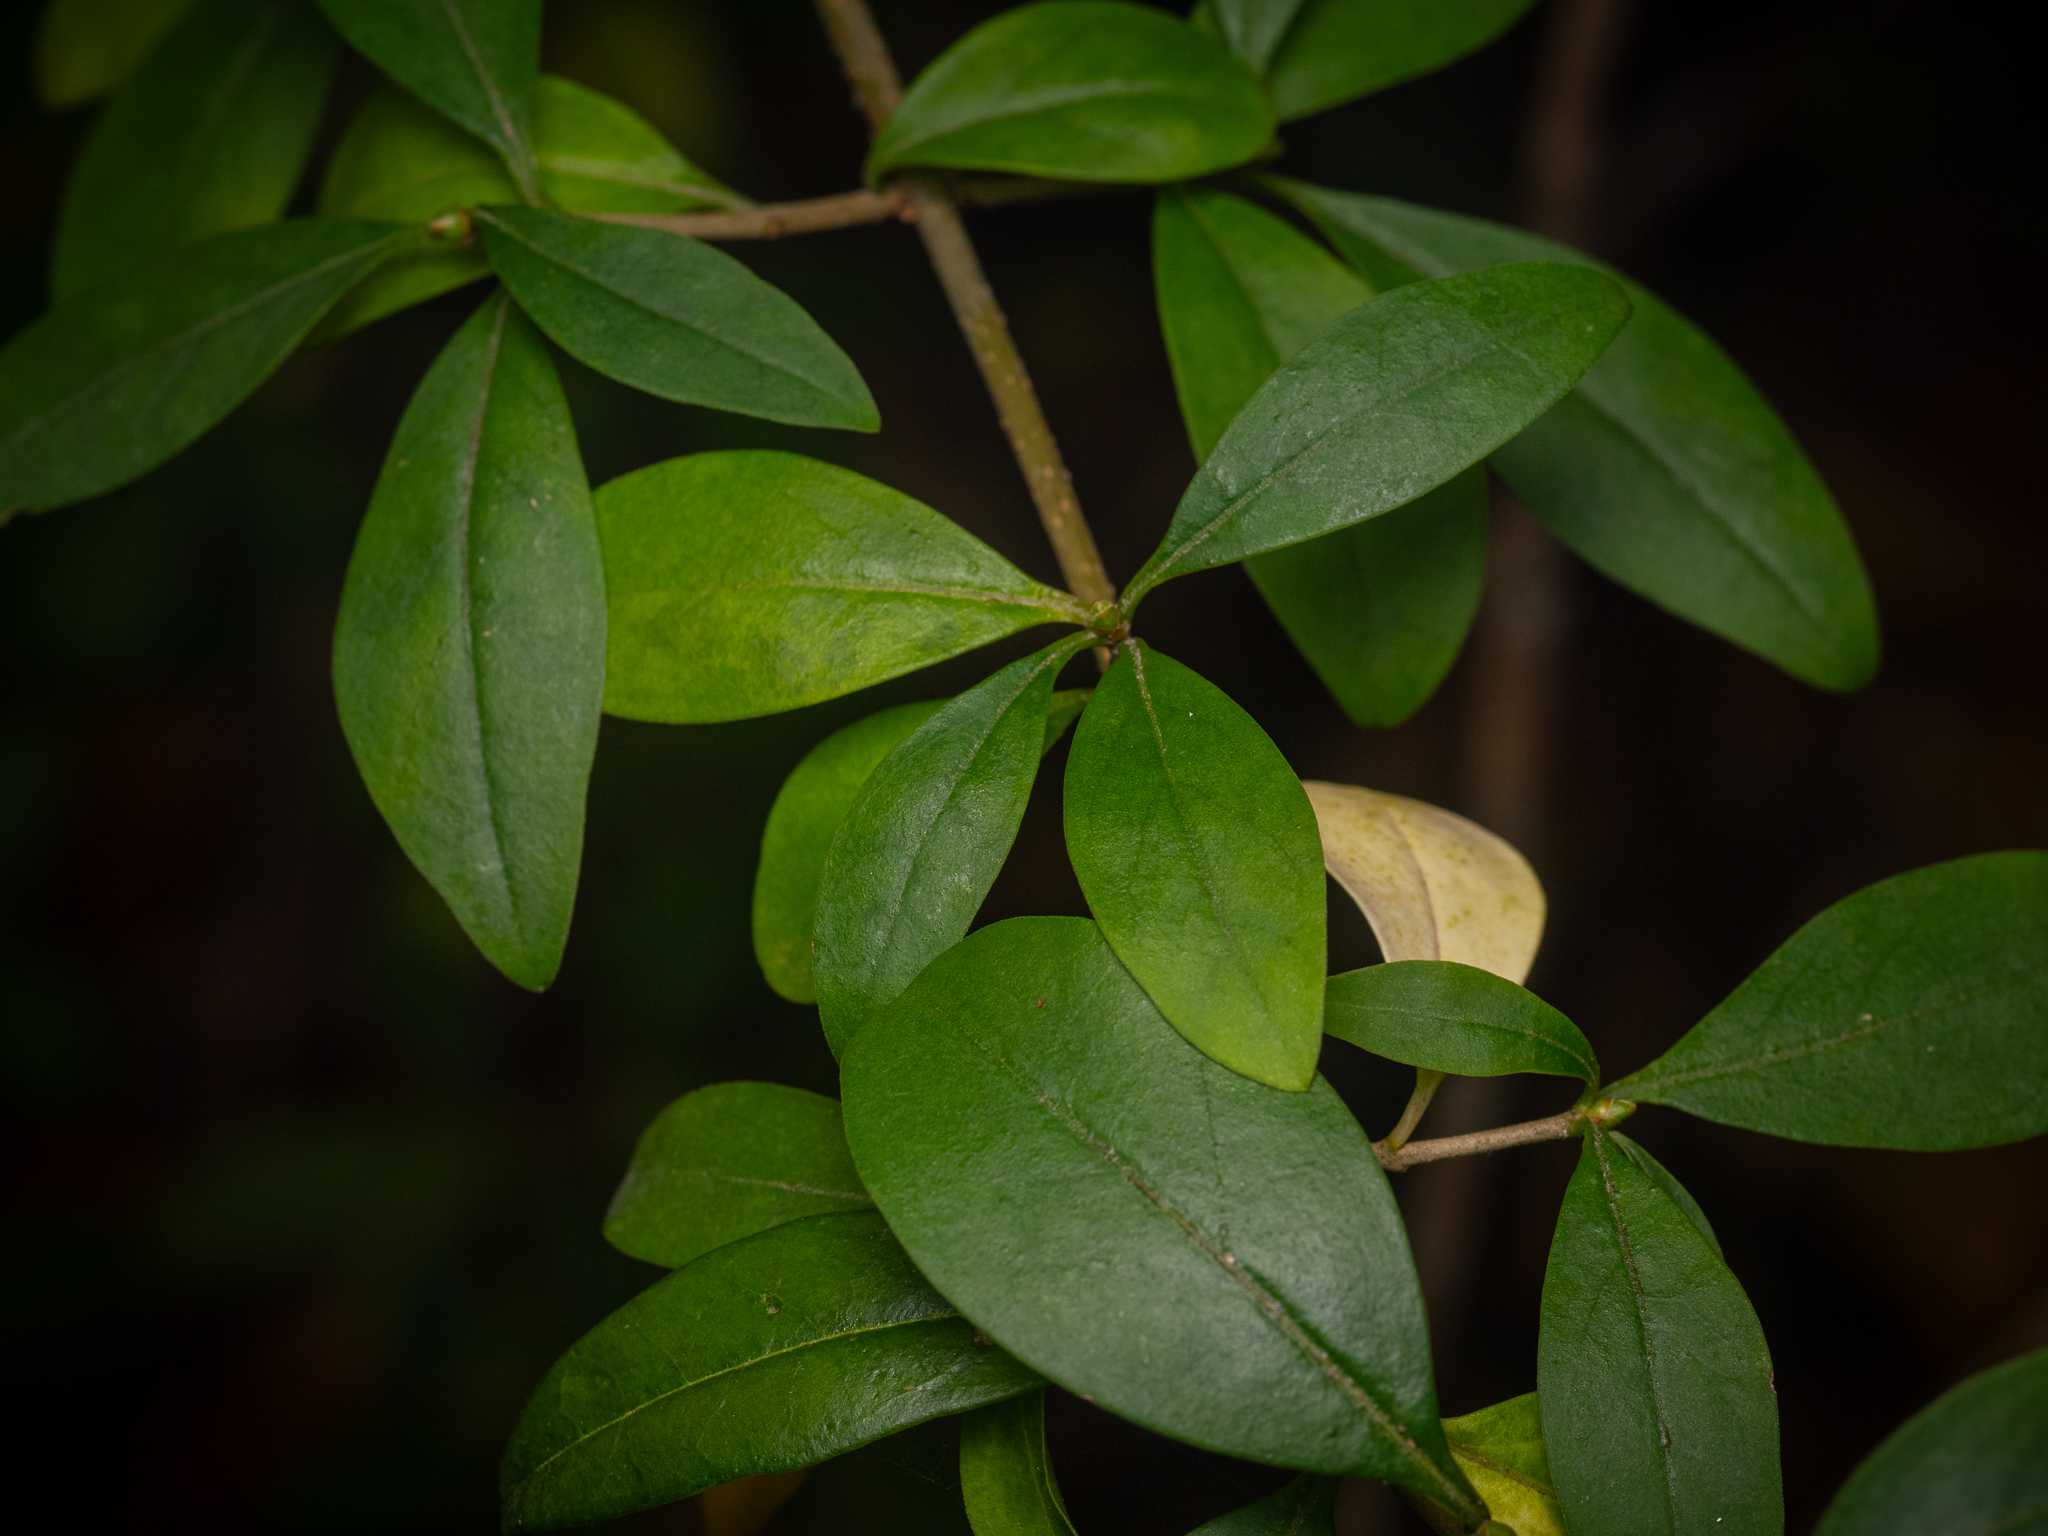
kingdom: Plantae
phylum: Tracheophyta
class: Magnoliopsida
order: Lamiales
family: Oleaceae
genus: Ligustrum
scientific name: Ligustrum vulgare
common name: Wild privet
